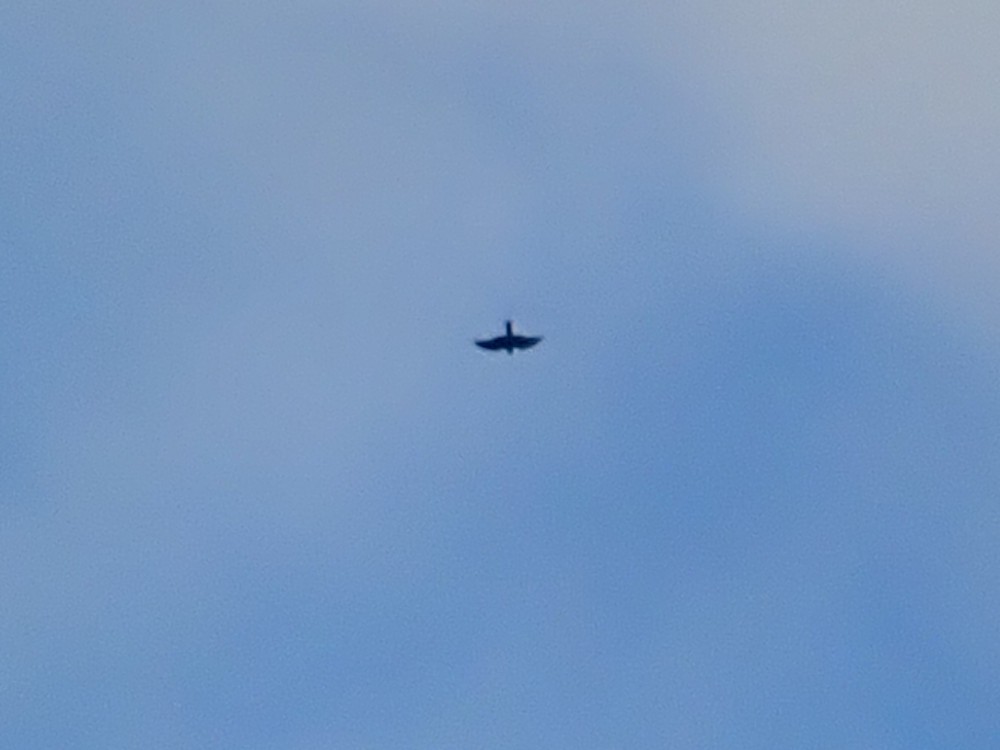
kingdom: Animalia
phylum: Chordata
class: Aves
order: Accipitriformes
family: Accipitridae
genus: Accipiter
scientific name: Accipiter nisus
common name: Eurasian sparrowhawk
